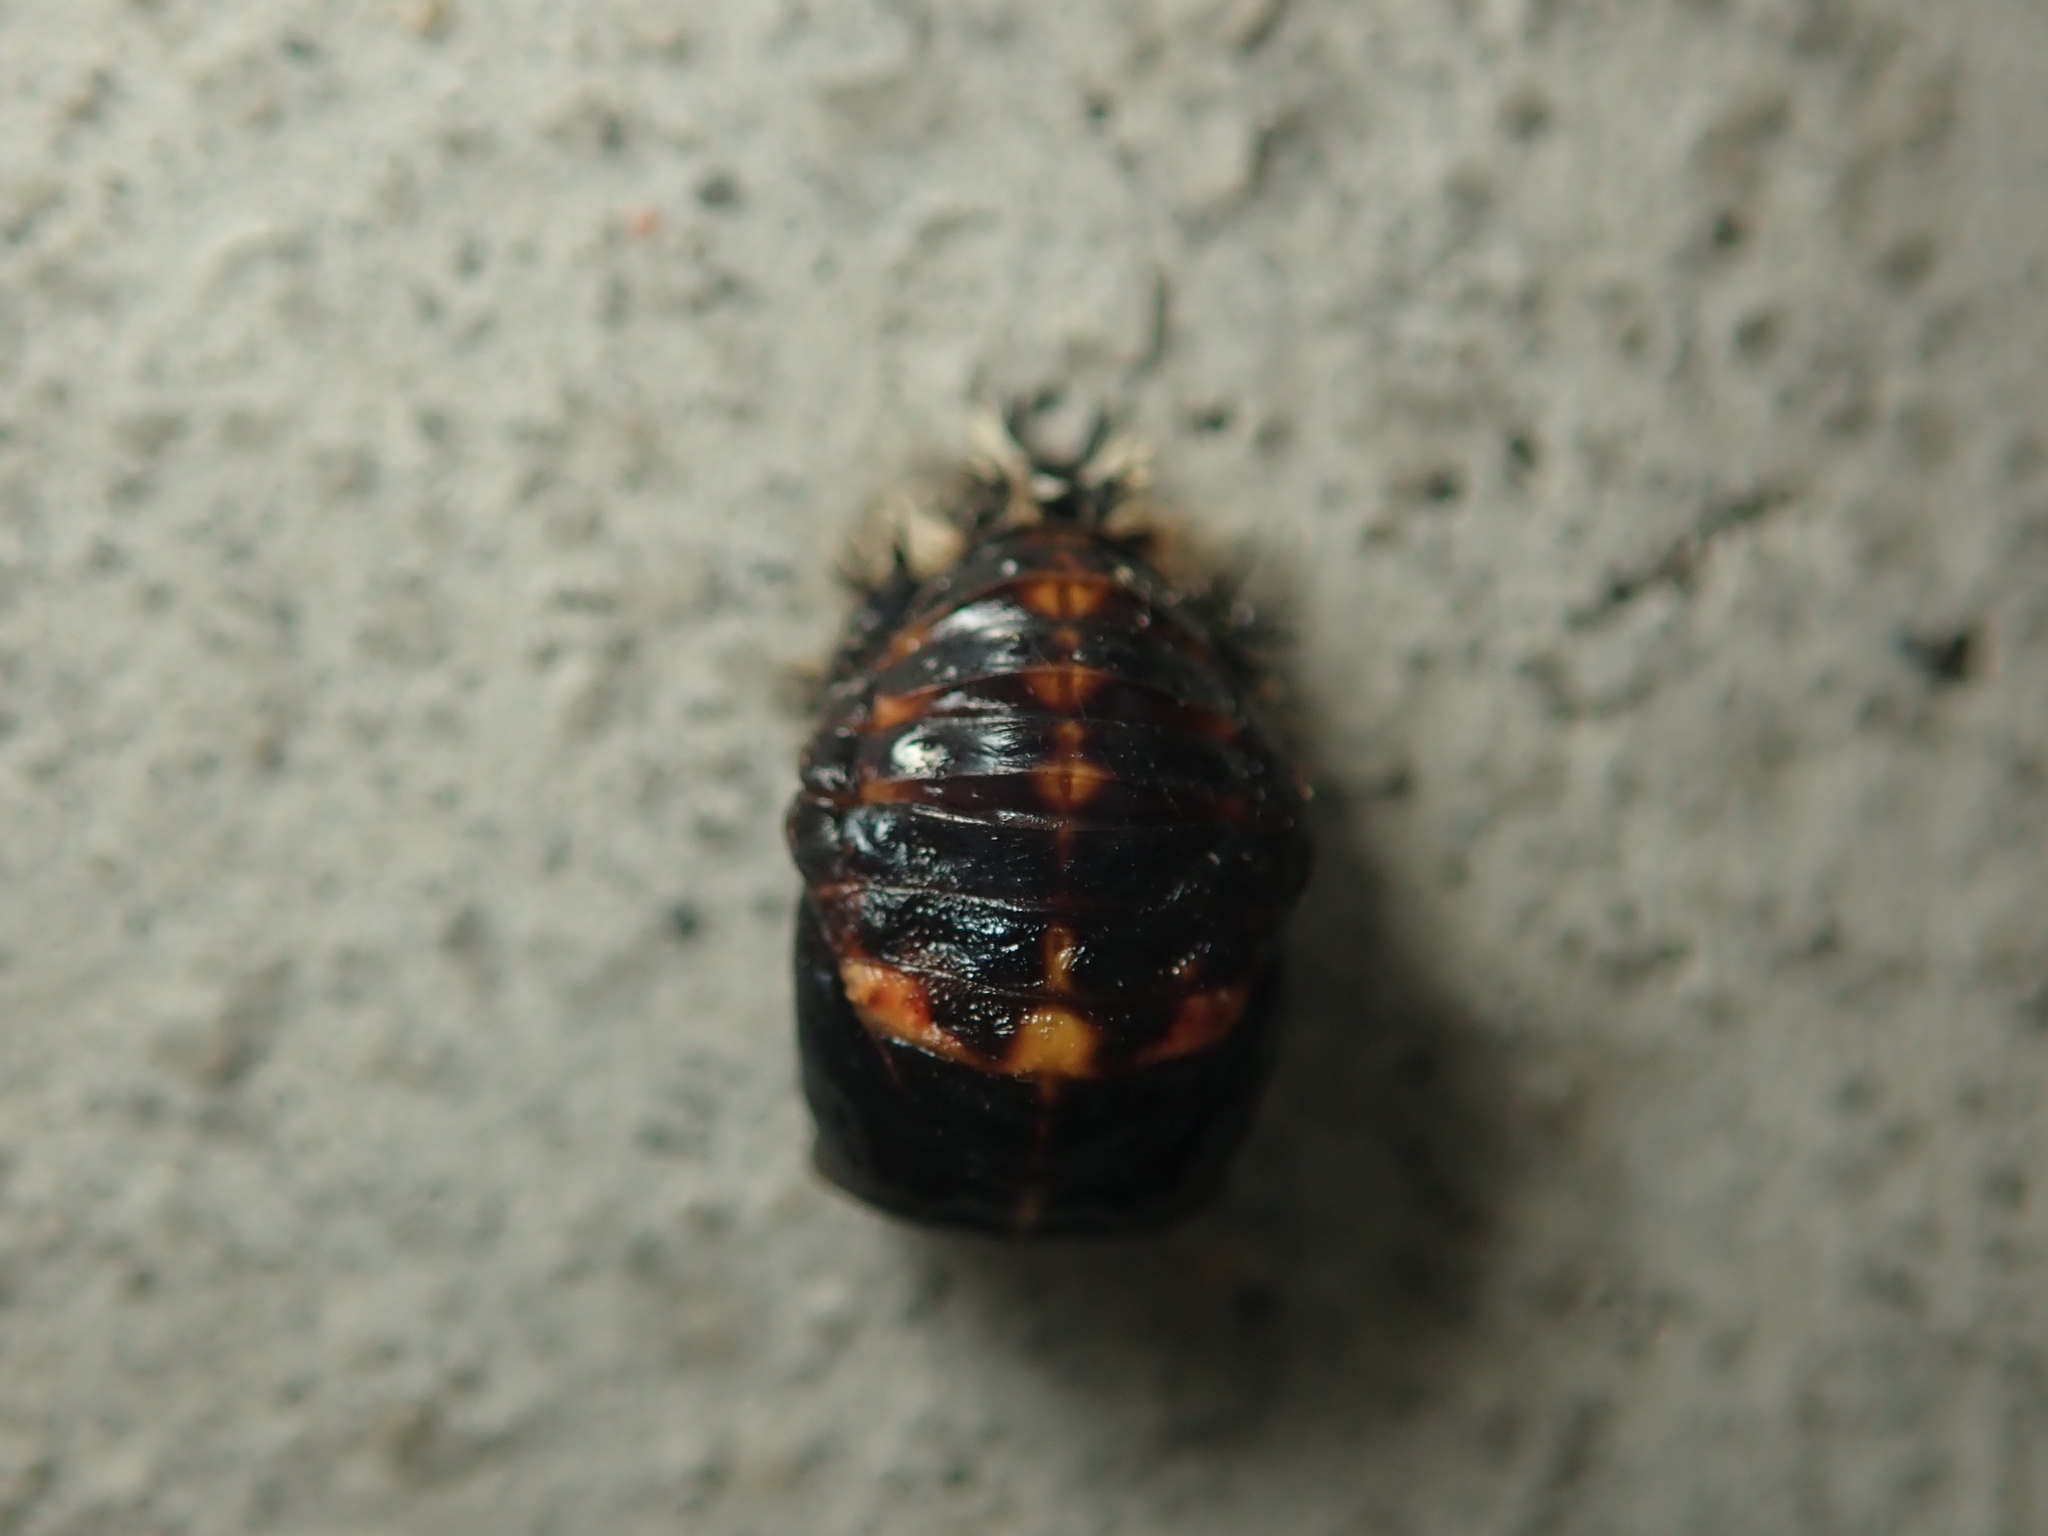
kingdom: Animalia
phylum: Arthropoda
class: Insecta
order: Coleoptera
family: Coccinellidae
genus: Harmonia
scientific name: Harmonia axyridis
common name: Harlequin ladybird
